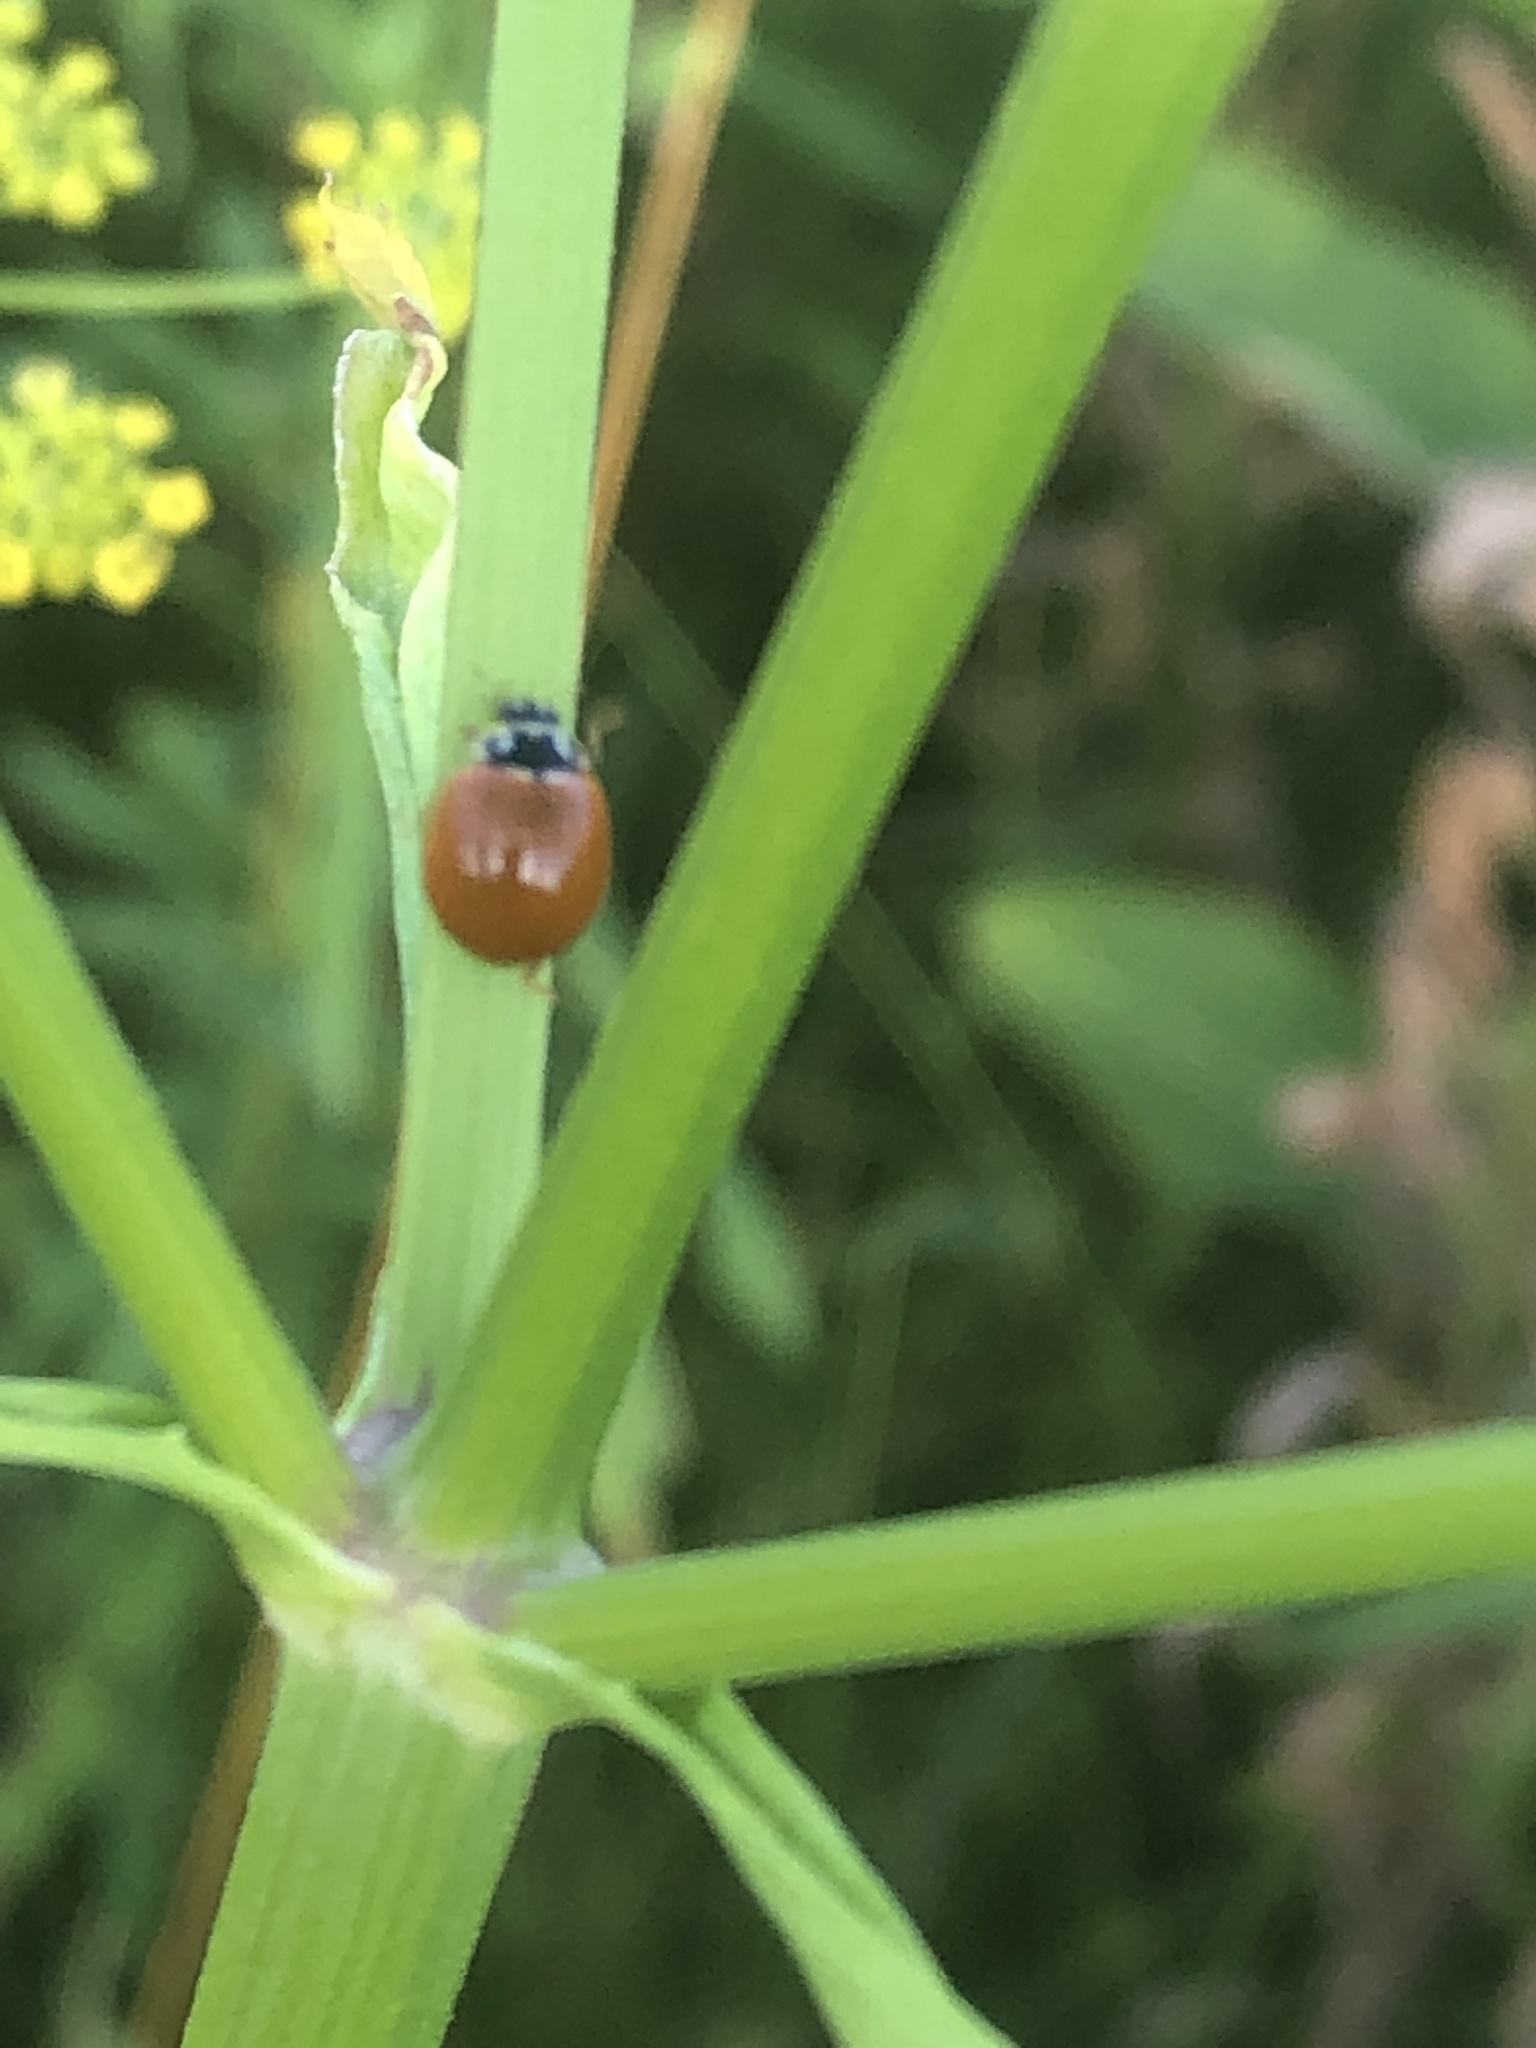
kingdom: Animalia
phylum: Arthropoda
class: Insecta
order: Coleoptera
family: Coccinellidae
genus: Cycloneda
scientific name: Cycloneda munda
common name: Polished lady beetle
